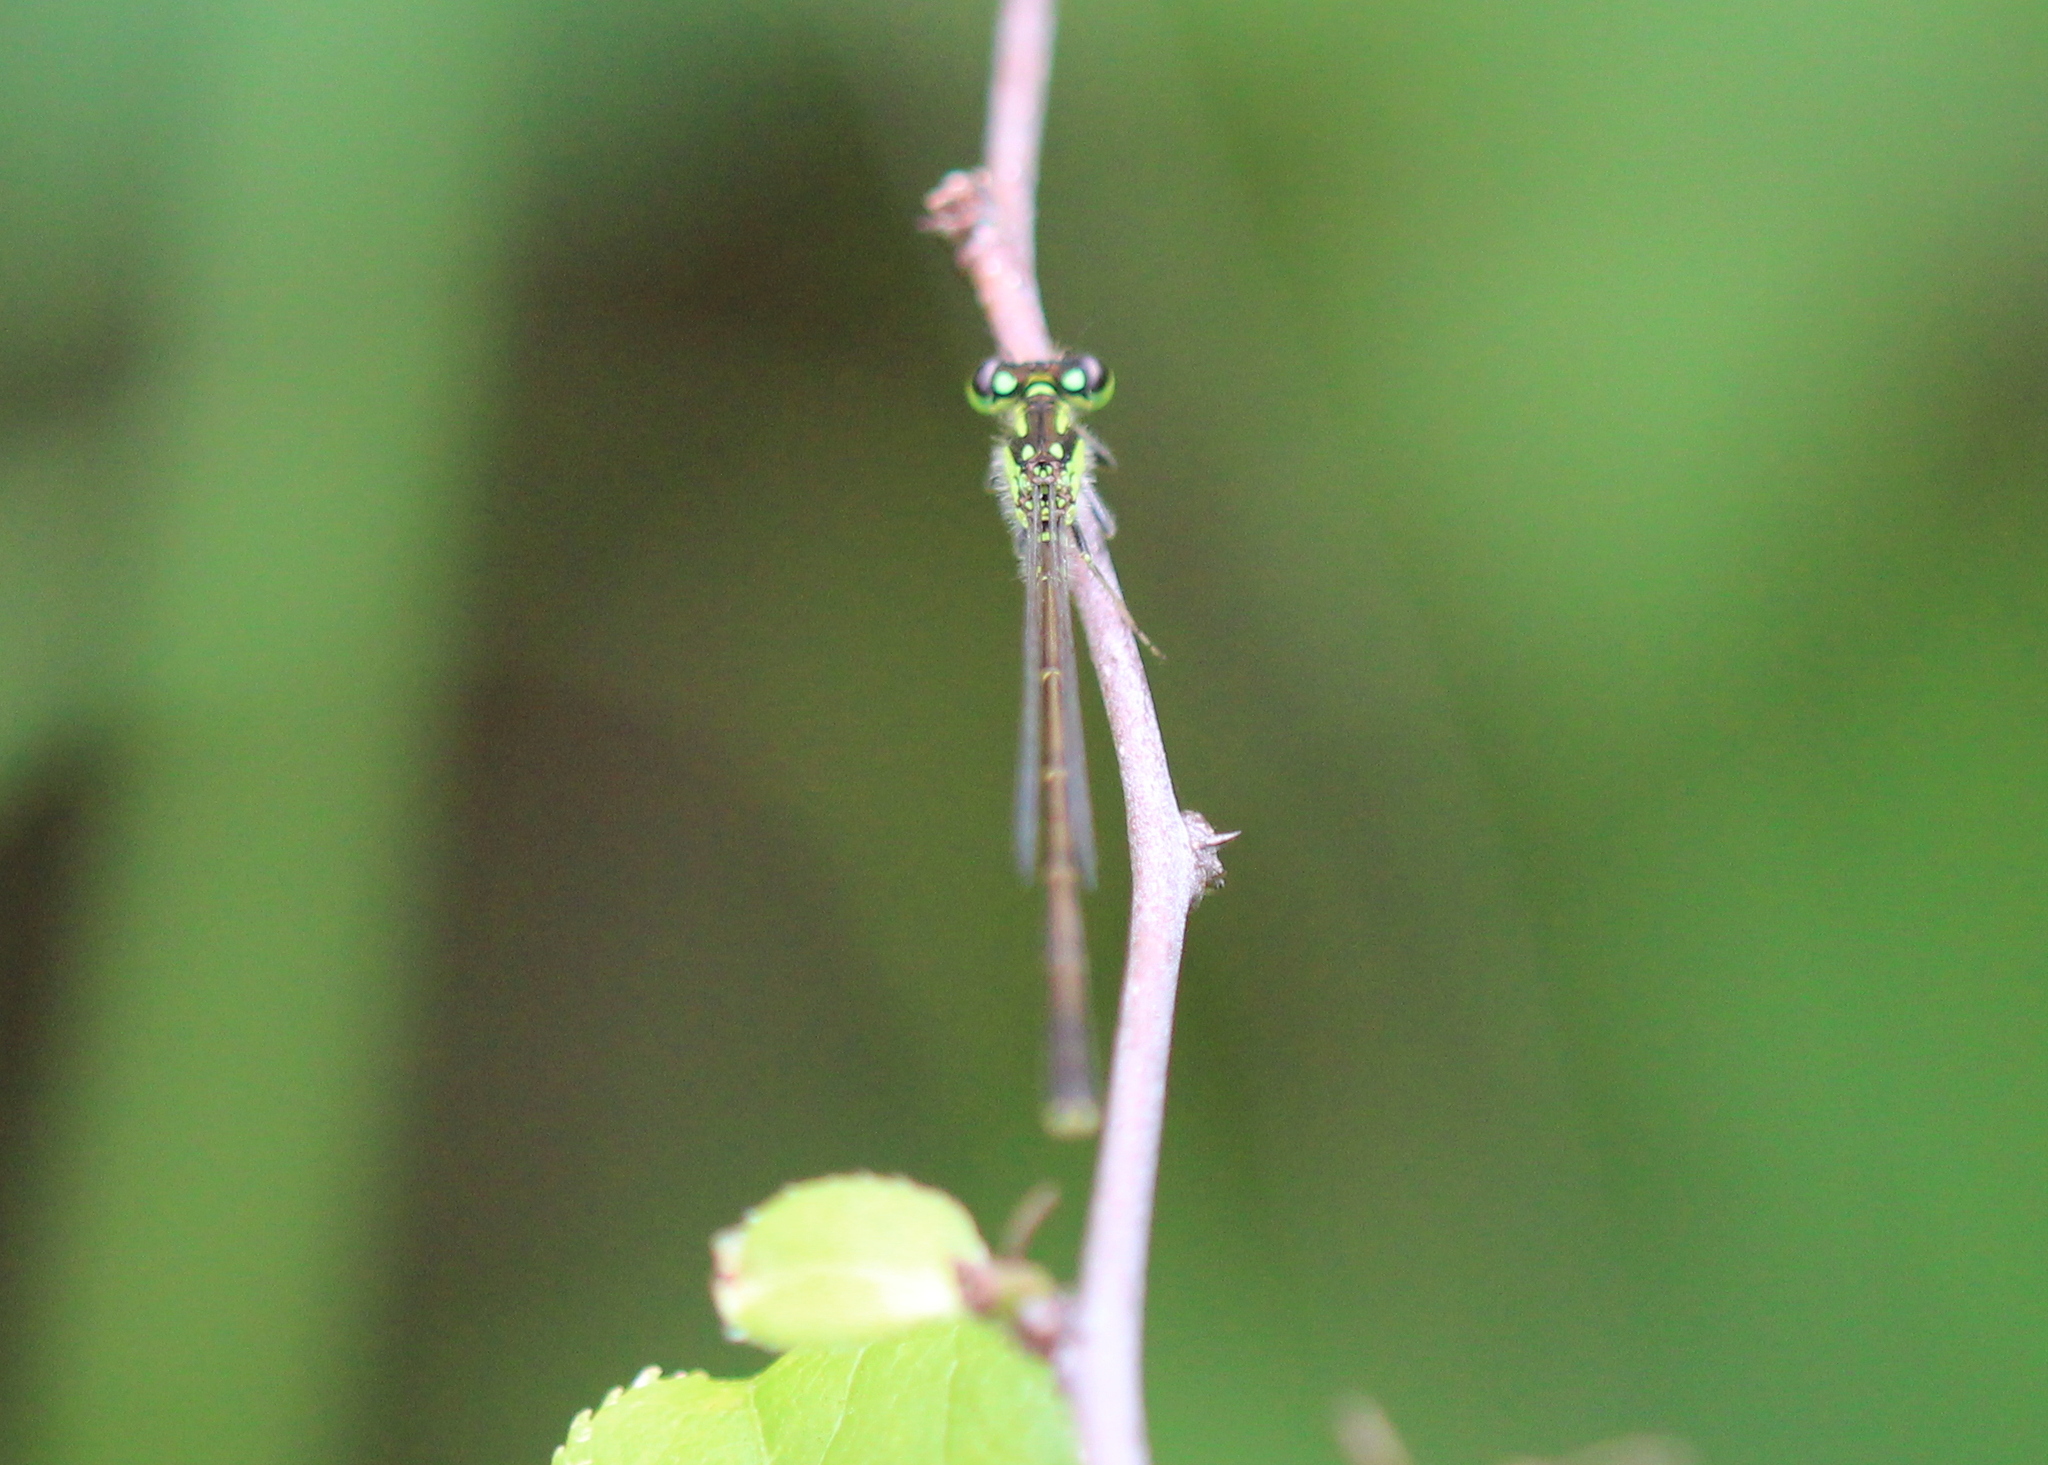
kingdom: Animalia
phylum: Arthropoda
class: Insecta
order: Odonata
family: Coenagrionidae
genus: Ischnura
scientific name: Ischnura posita
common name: Fragile forktail
